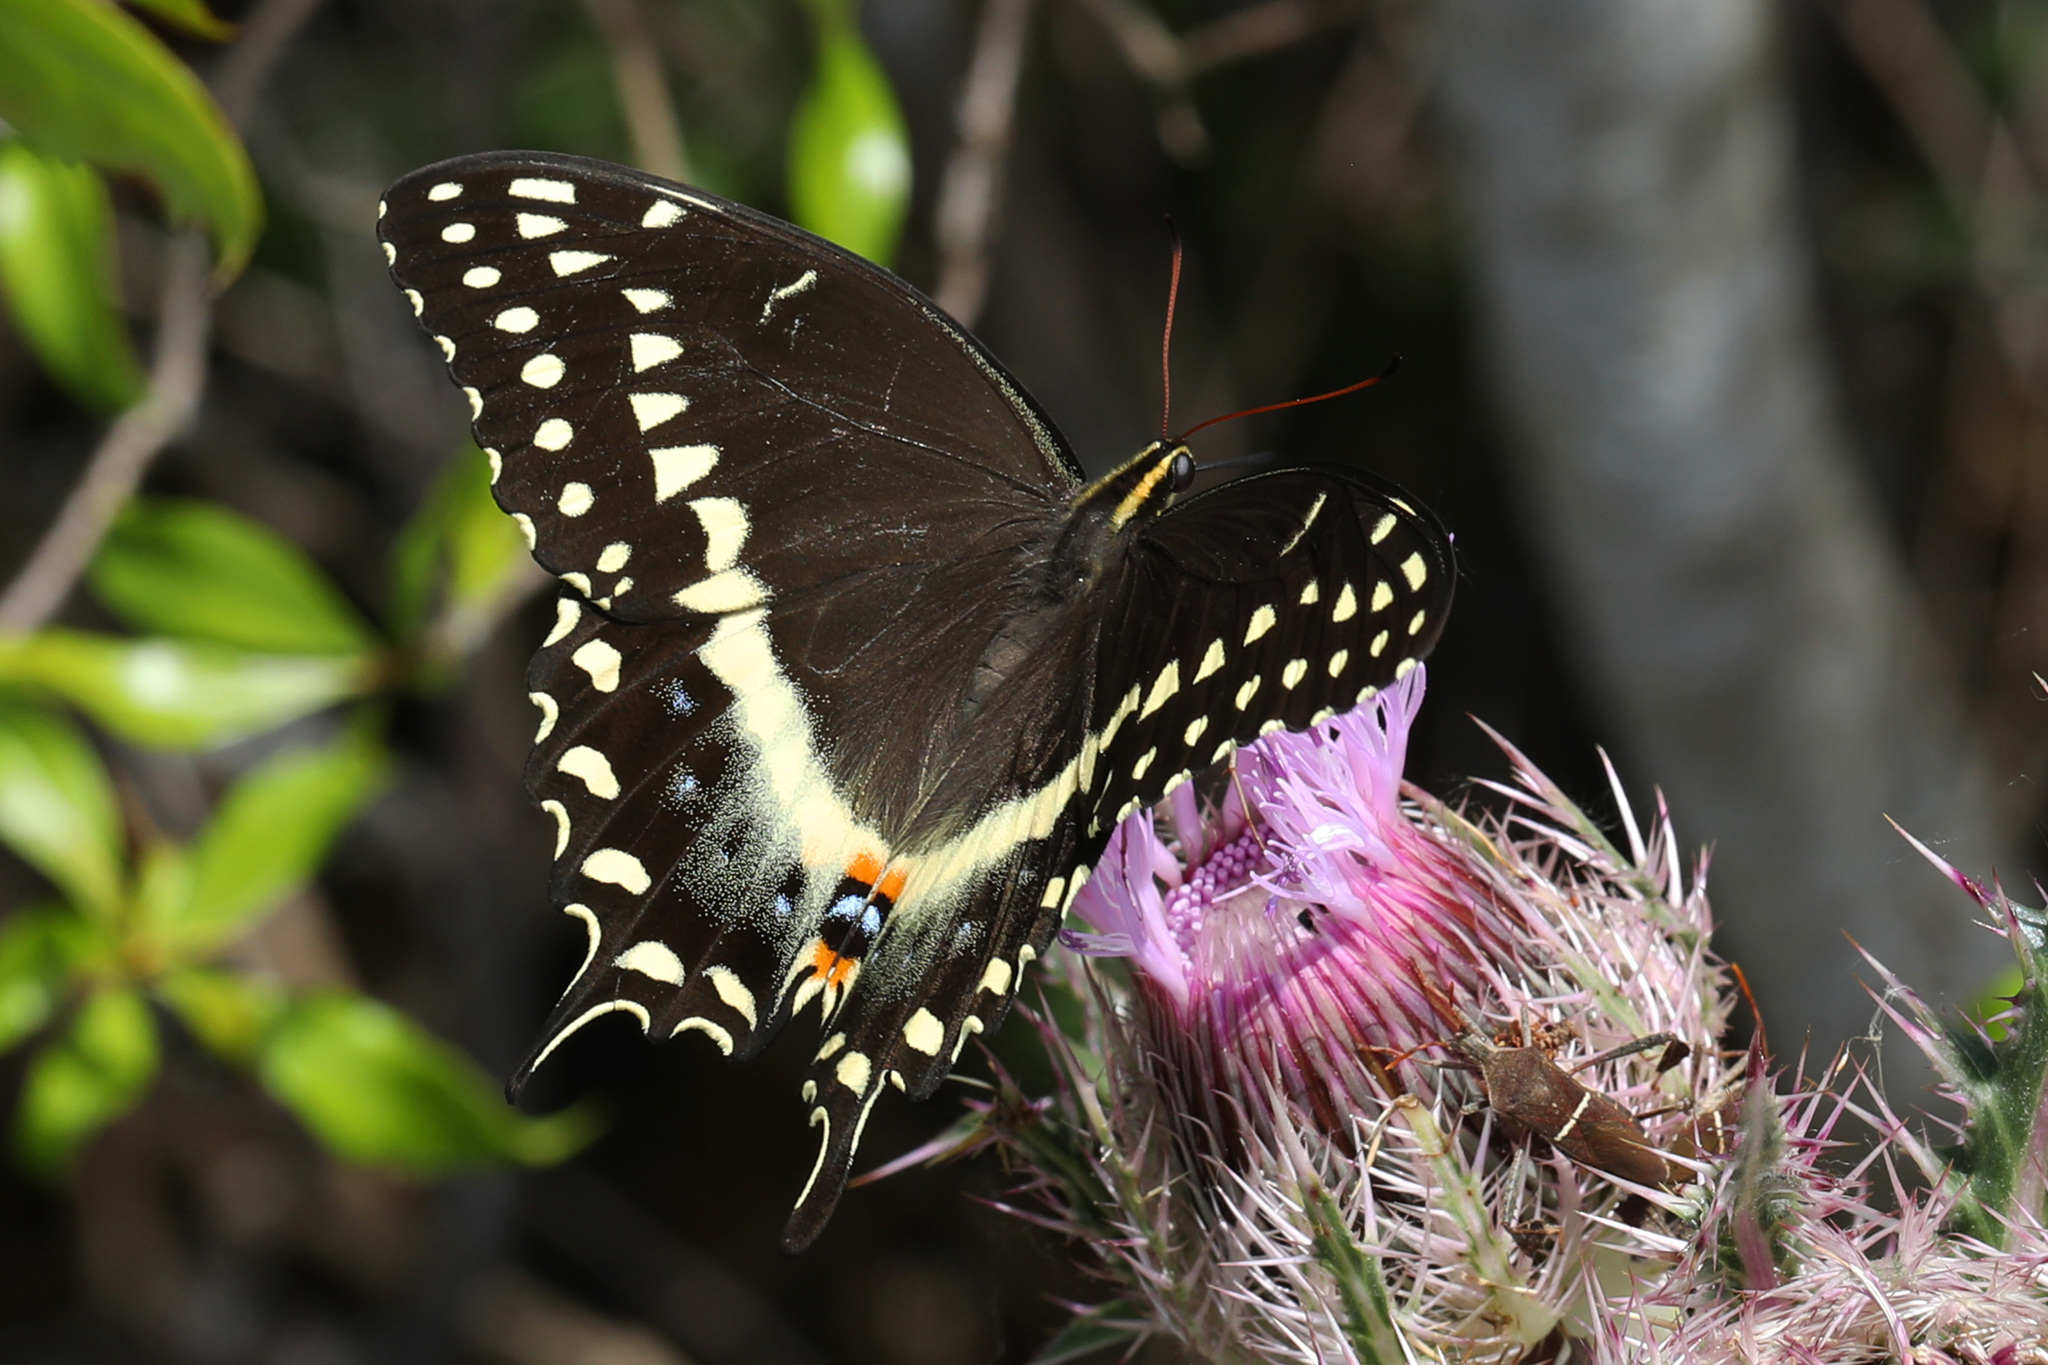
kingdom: Animalia
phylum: Arthropoda
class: Insecta
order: Lepidoptera
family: Papilionidae
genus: Papilio
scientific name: Papilio palamedes
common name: Palamedes swallowtail
